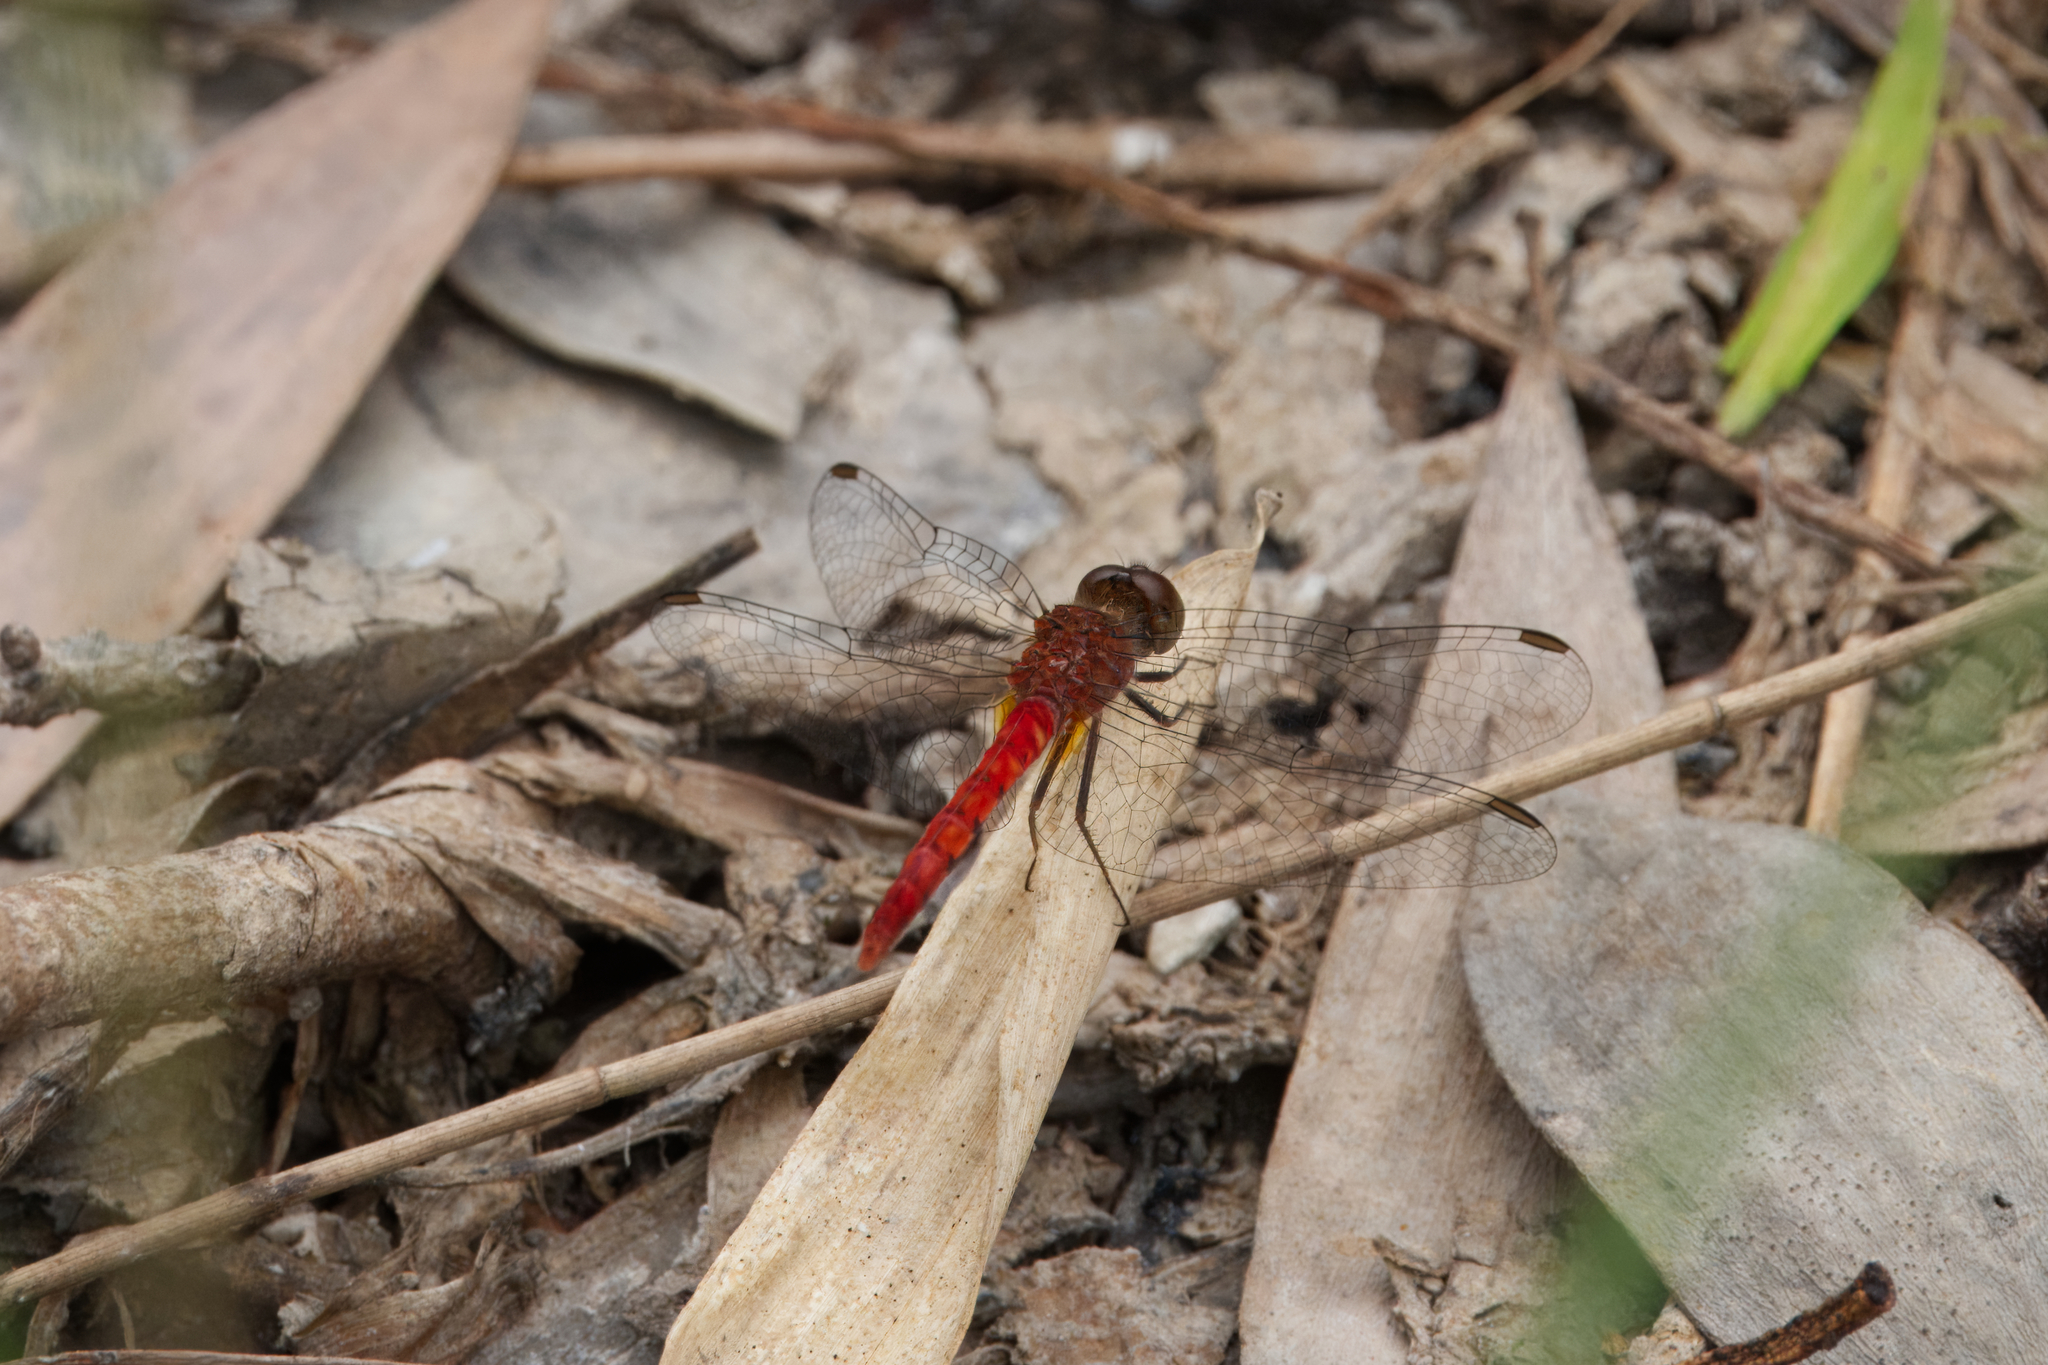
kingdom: Animalia
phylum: Arthropoda
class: Insecta
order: Odonata
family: Libellulidae
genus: Nannodiplax
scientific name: Nannodiplax rubra
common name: Pygmy percher
